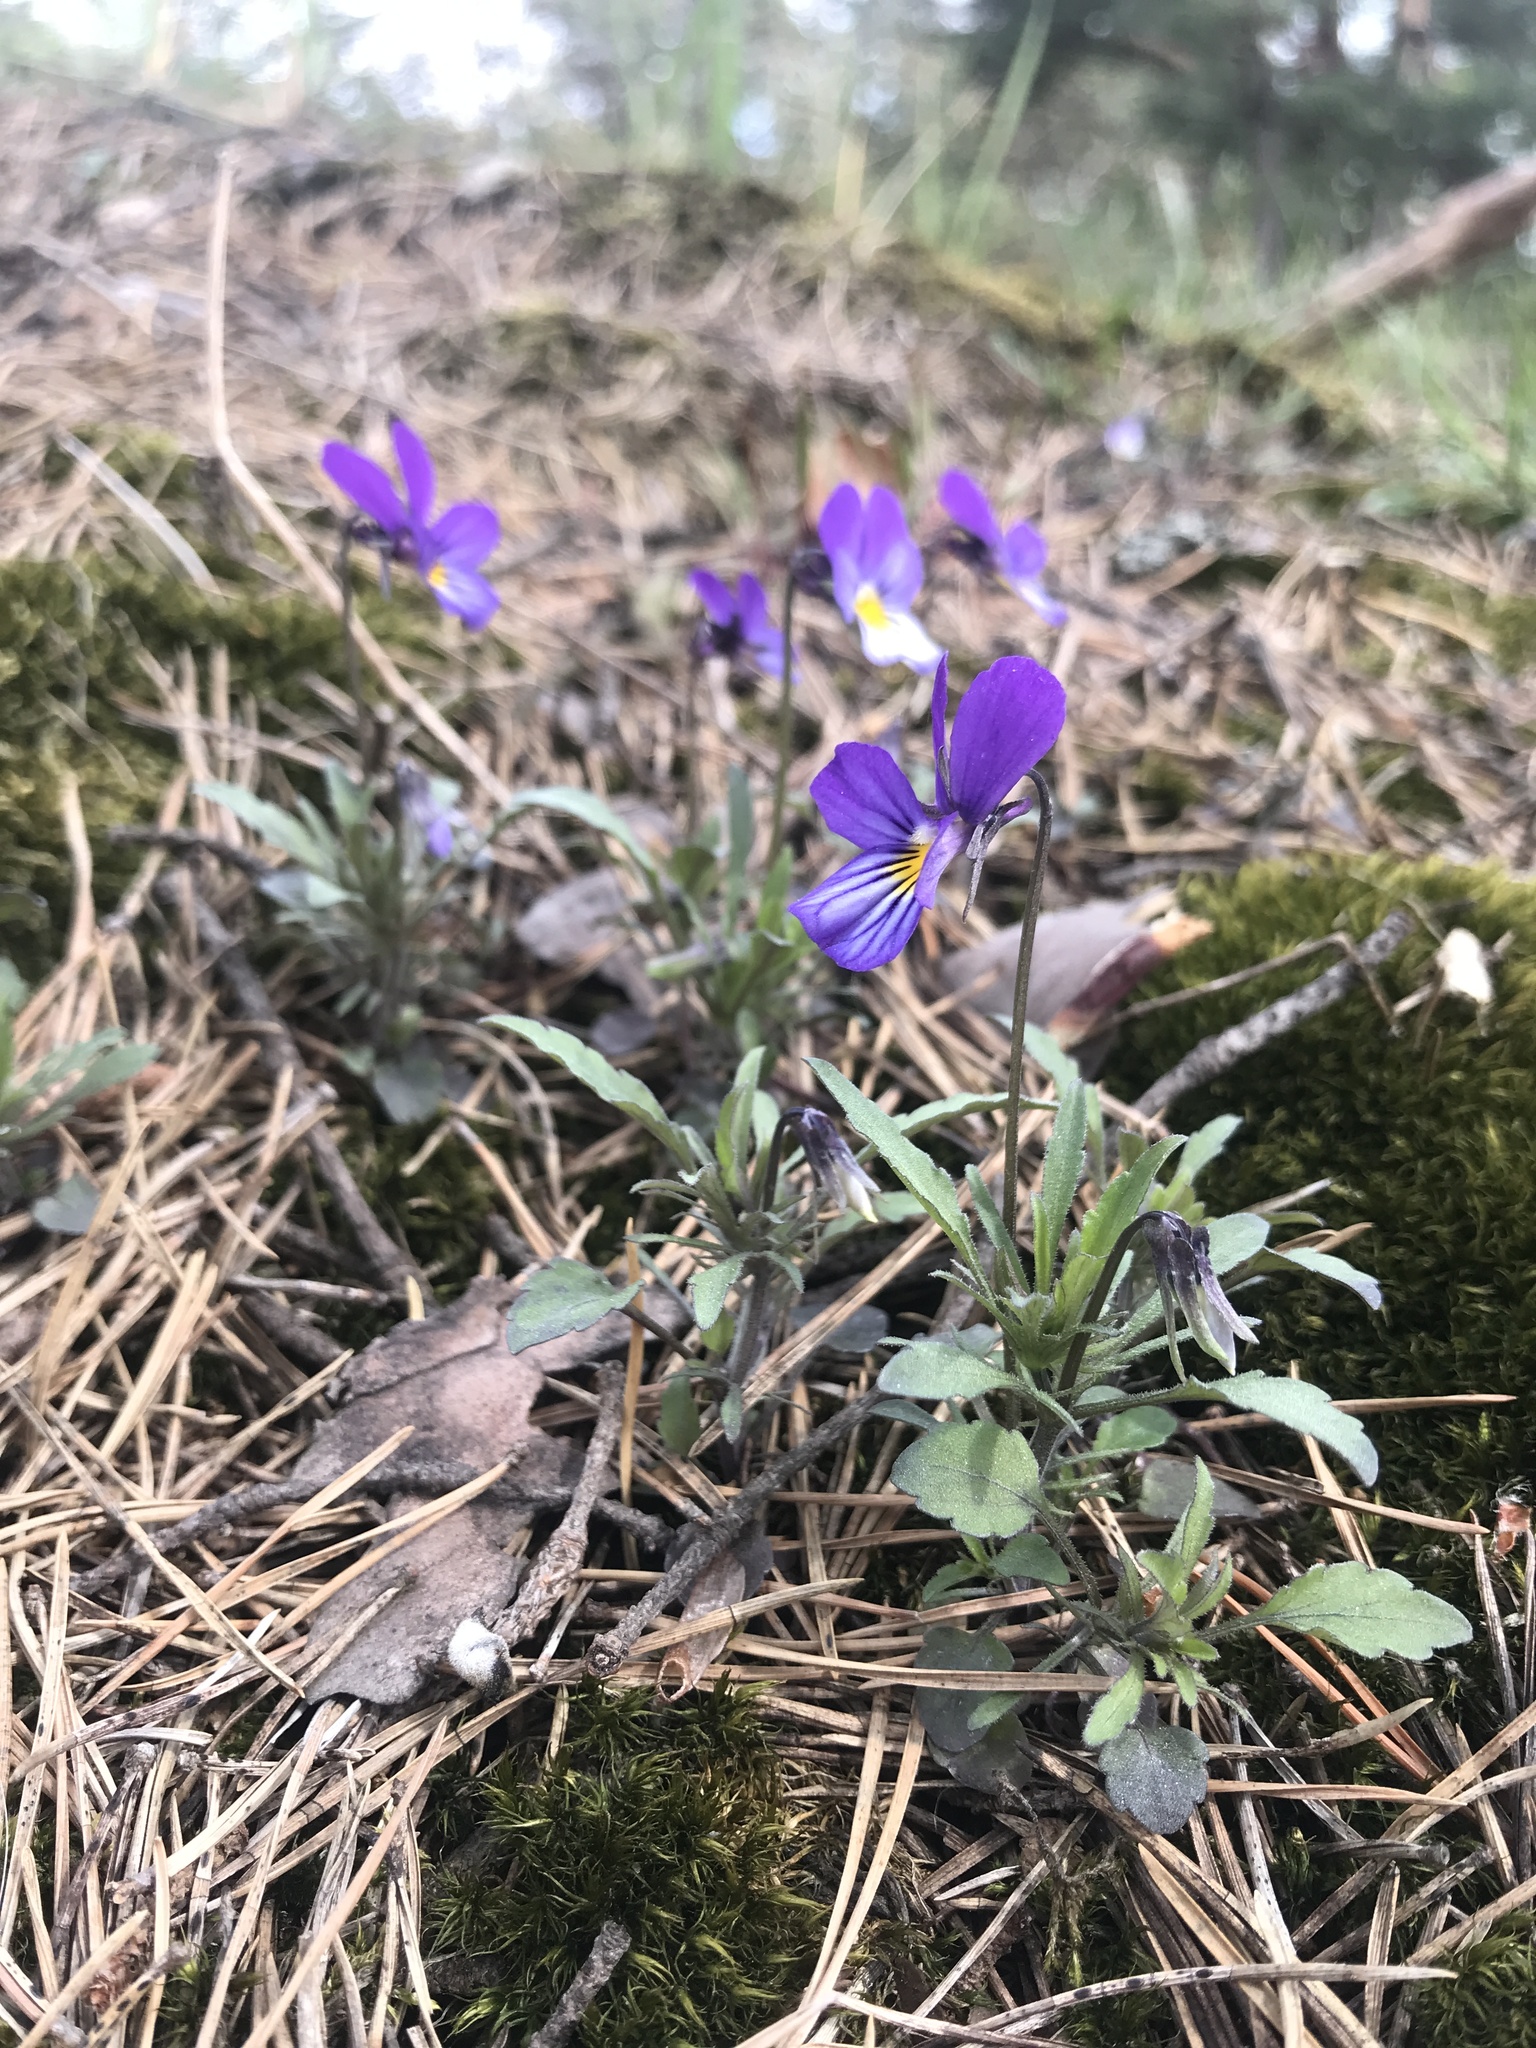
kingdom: Plantae
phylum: Tracheophyta
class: Magnoliopsida
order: Malpighiales
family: Violaceae
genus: Viola
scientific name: Viola tricolor
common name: Pansy
